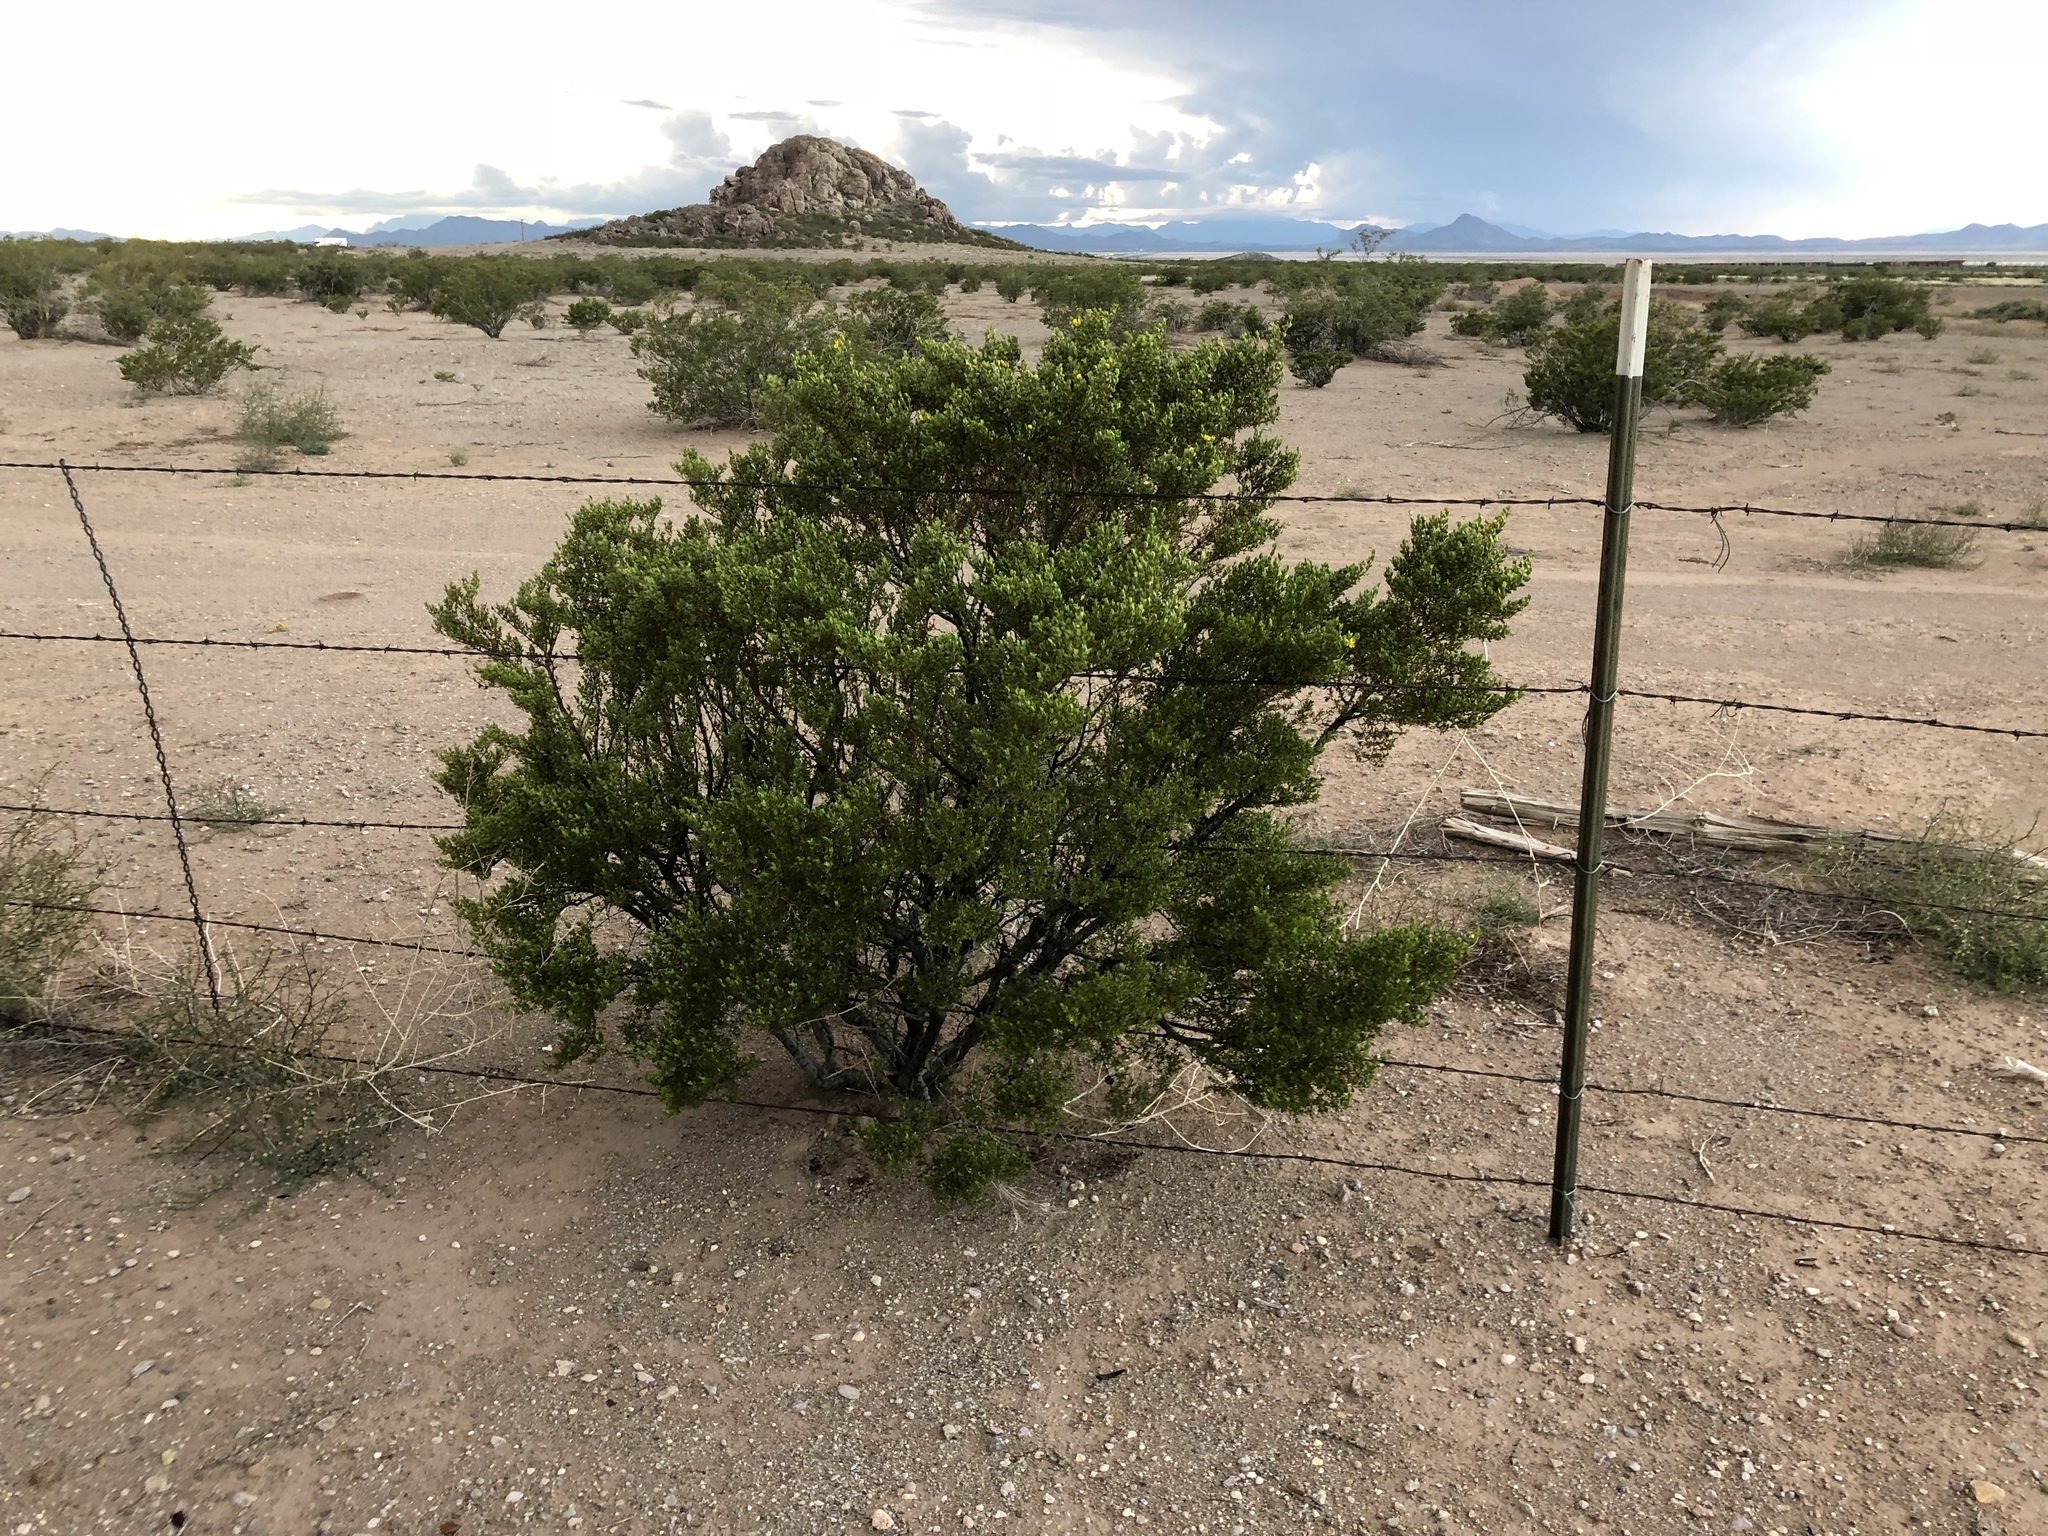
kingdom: Plantae
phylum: Tracheophyta
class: Magnoliopsida
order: Zygophyllales
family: Zygophyllaceae
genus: Larrea
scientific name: Larrea tridentata
